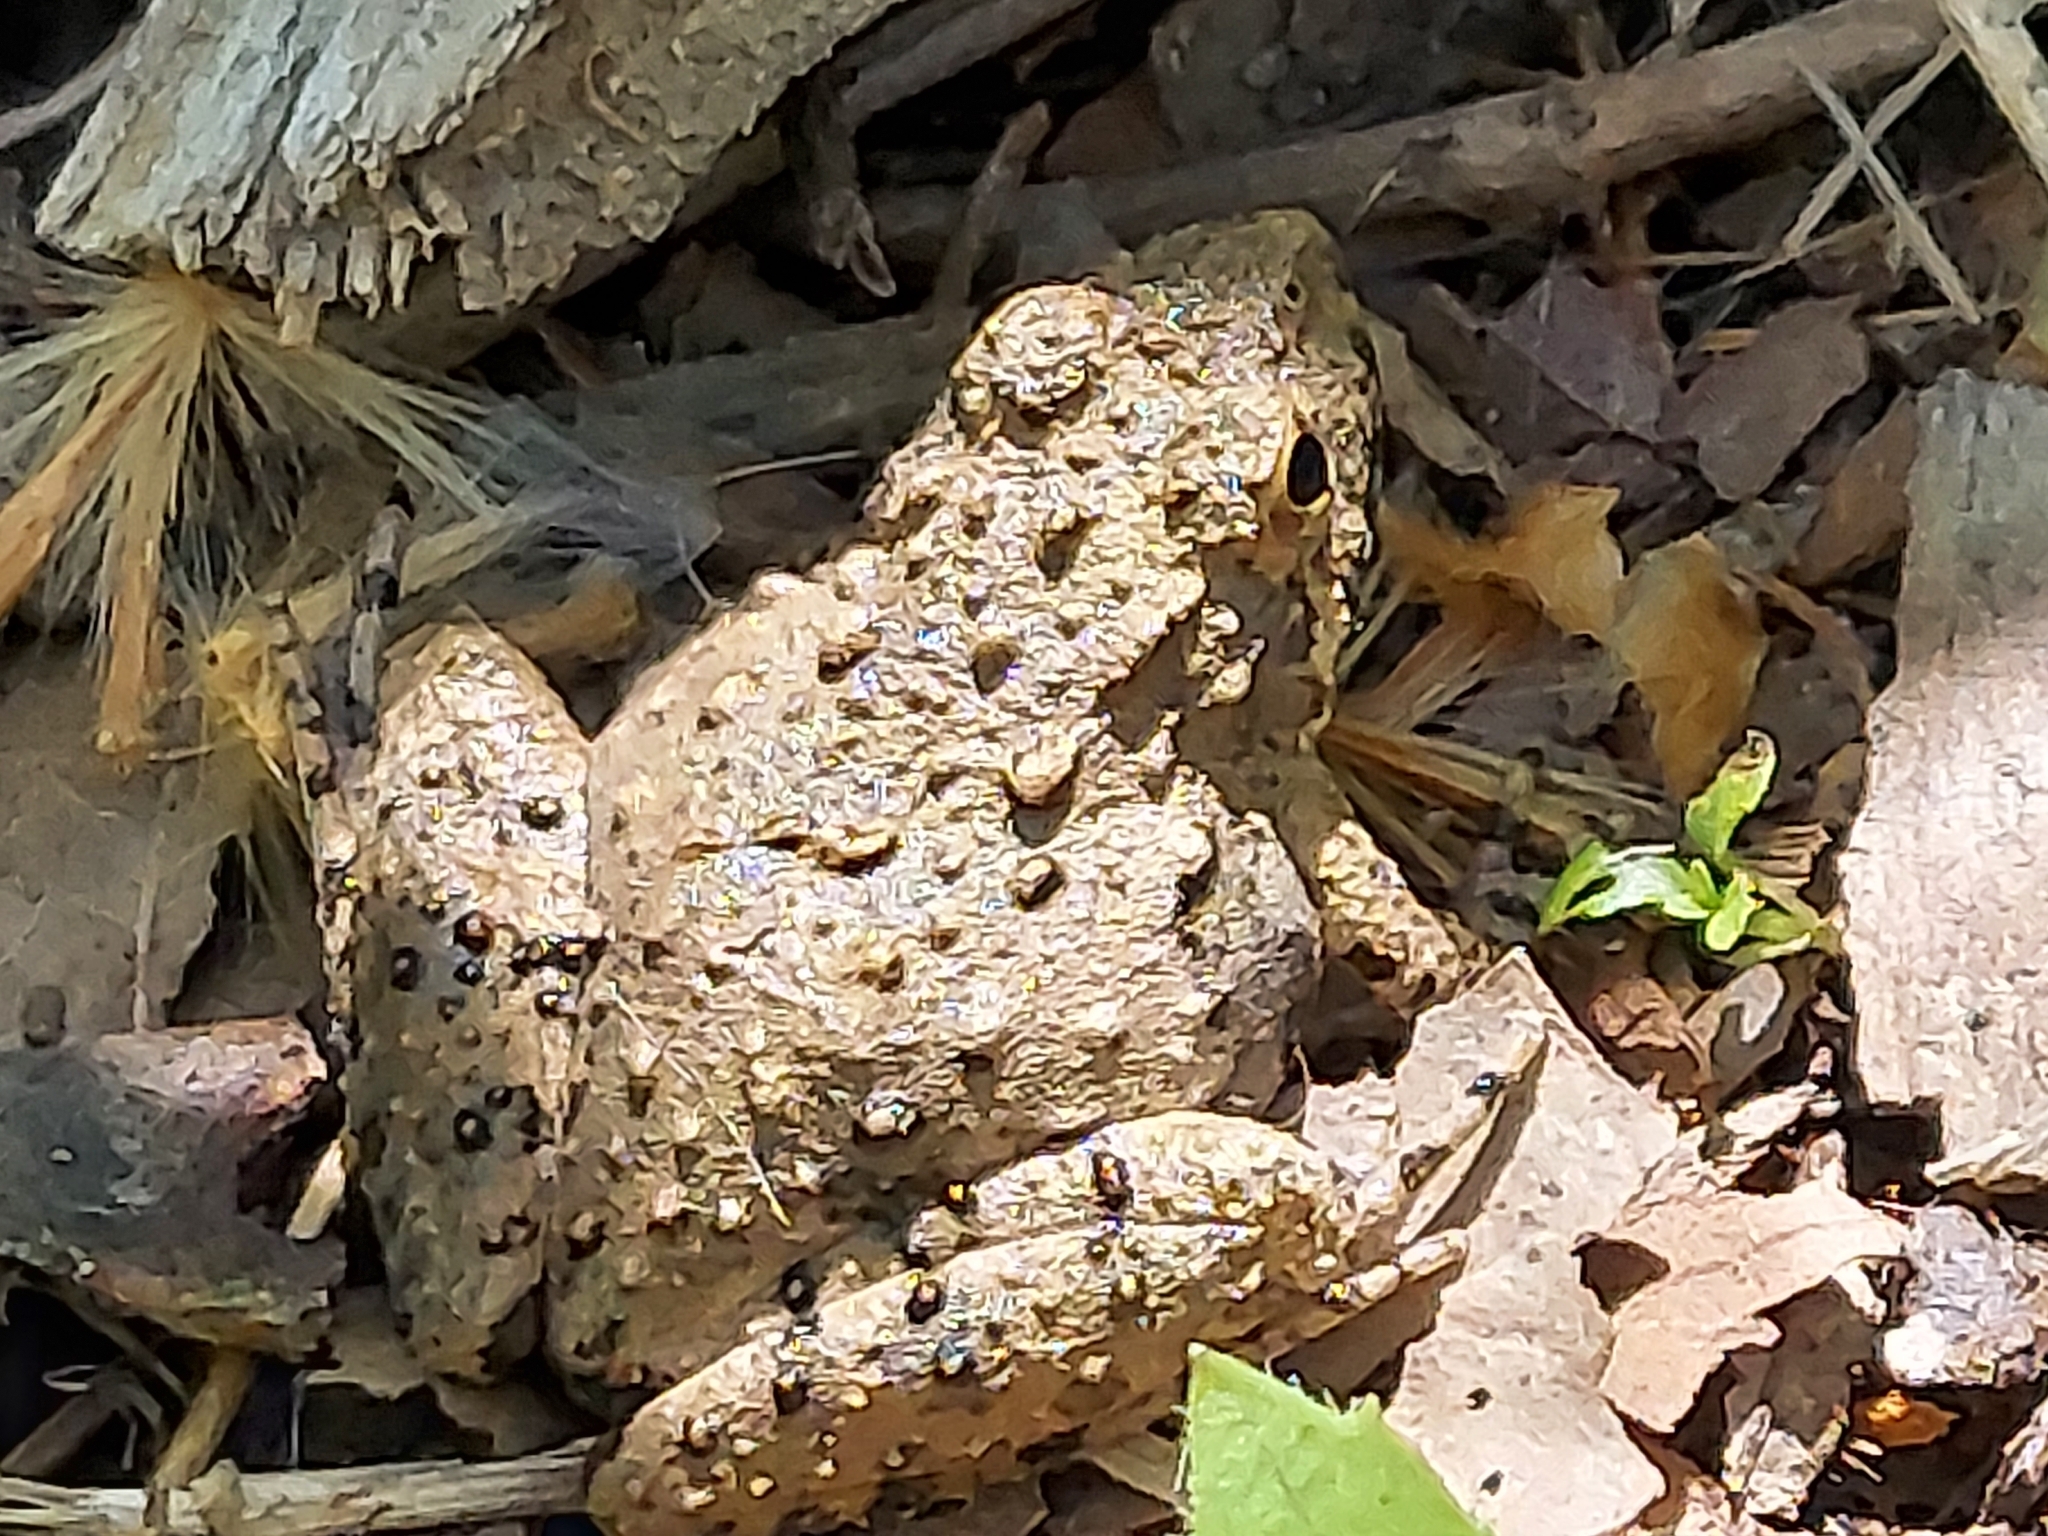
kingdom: Animalia
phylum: Chordata
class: Amphibia
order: Anura
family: Hylidae
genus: Acris
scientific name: Acris blanchardi
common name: Blanchard's cricket frog
